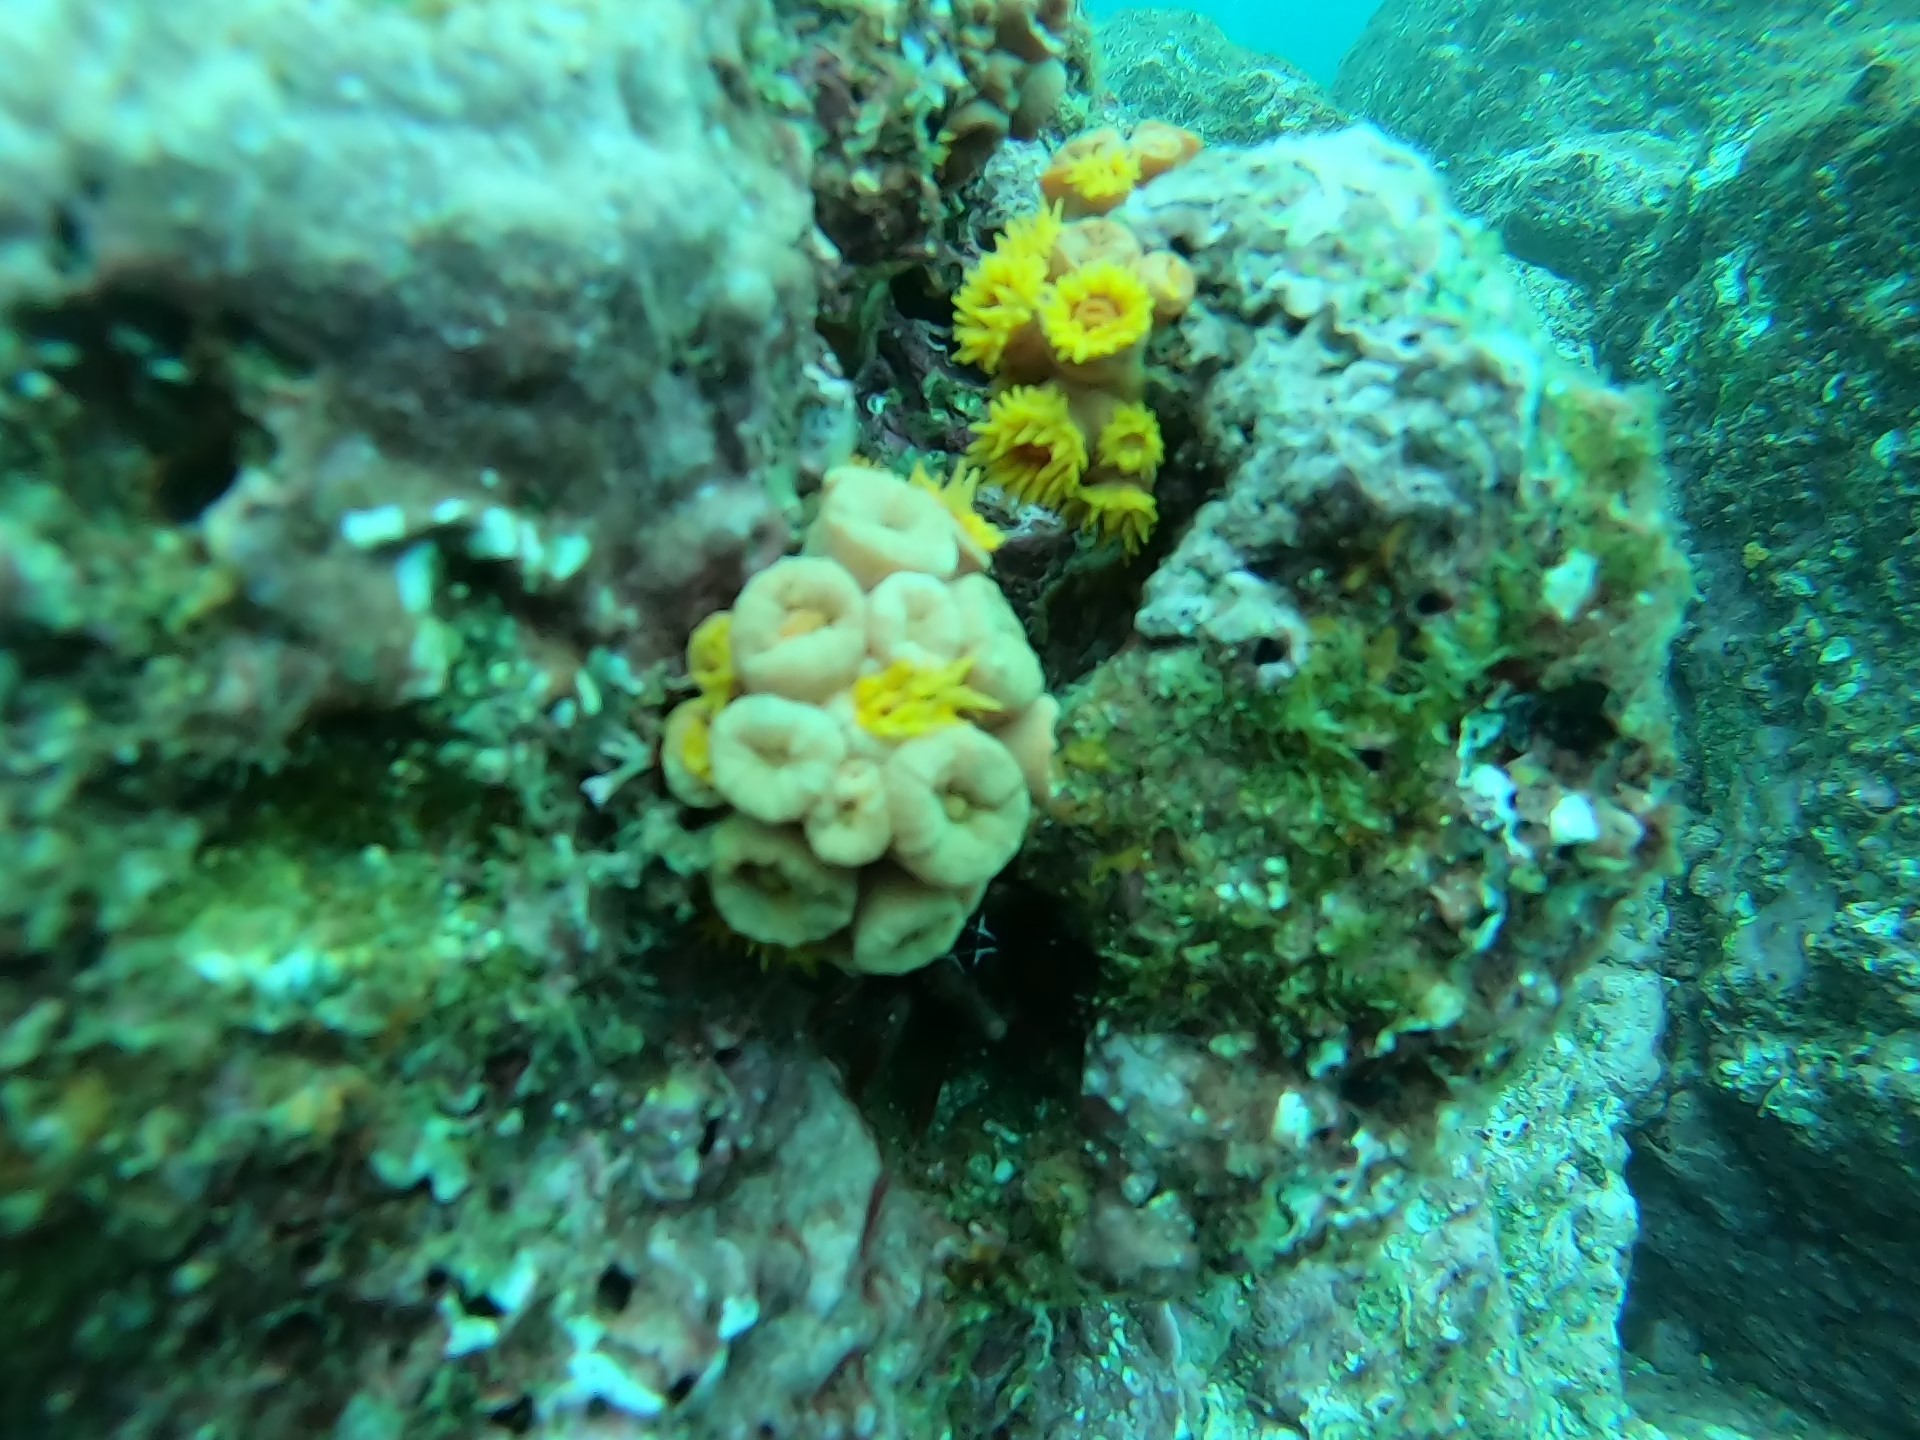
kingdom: Animalia
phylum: Cnidaria
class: Anthozoa
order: Scleractinia
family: Dendrophylliidae
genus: Tubastraea
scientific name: Tubastraea coccinea
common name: Orange cup coral
